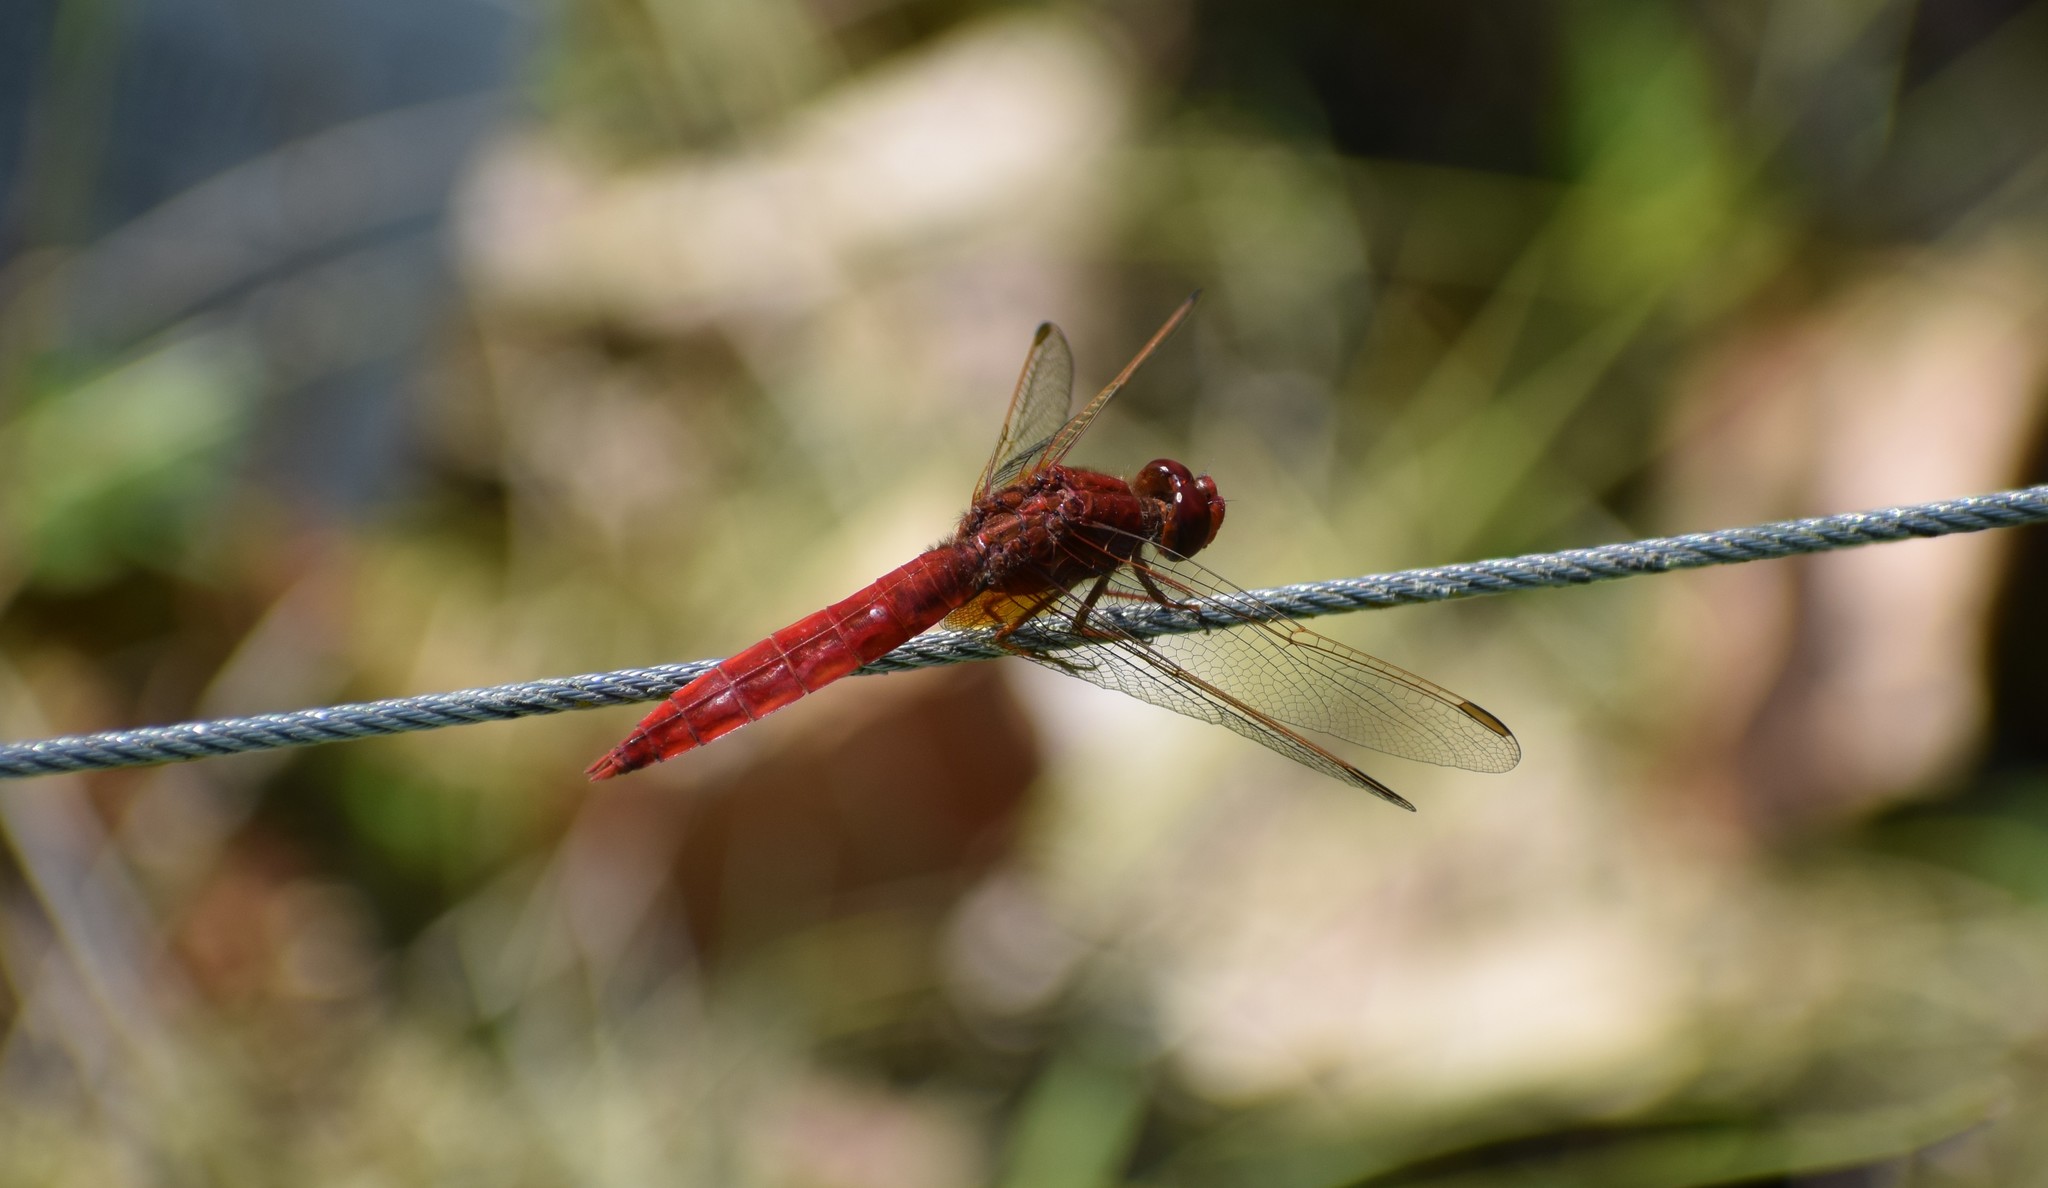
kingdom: Animalia
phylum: Arthropoda
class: Insecta
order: Odonata
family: Libellulidae
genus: Crocothemis
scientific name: Crocothemis erythraea
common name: Scarlet dragonfly
